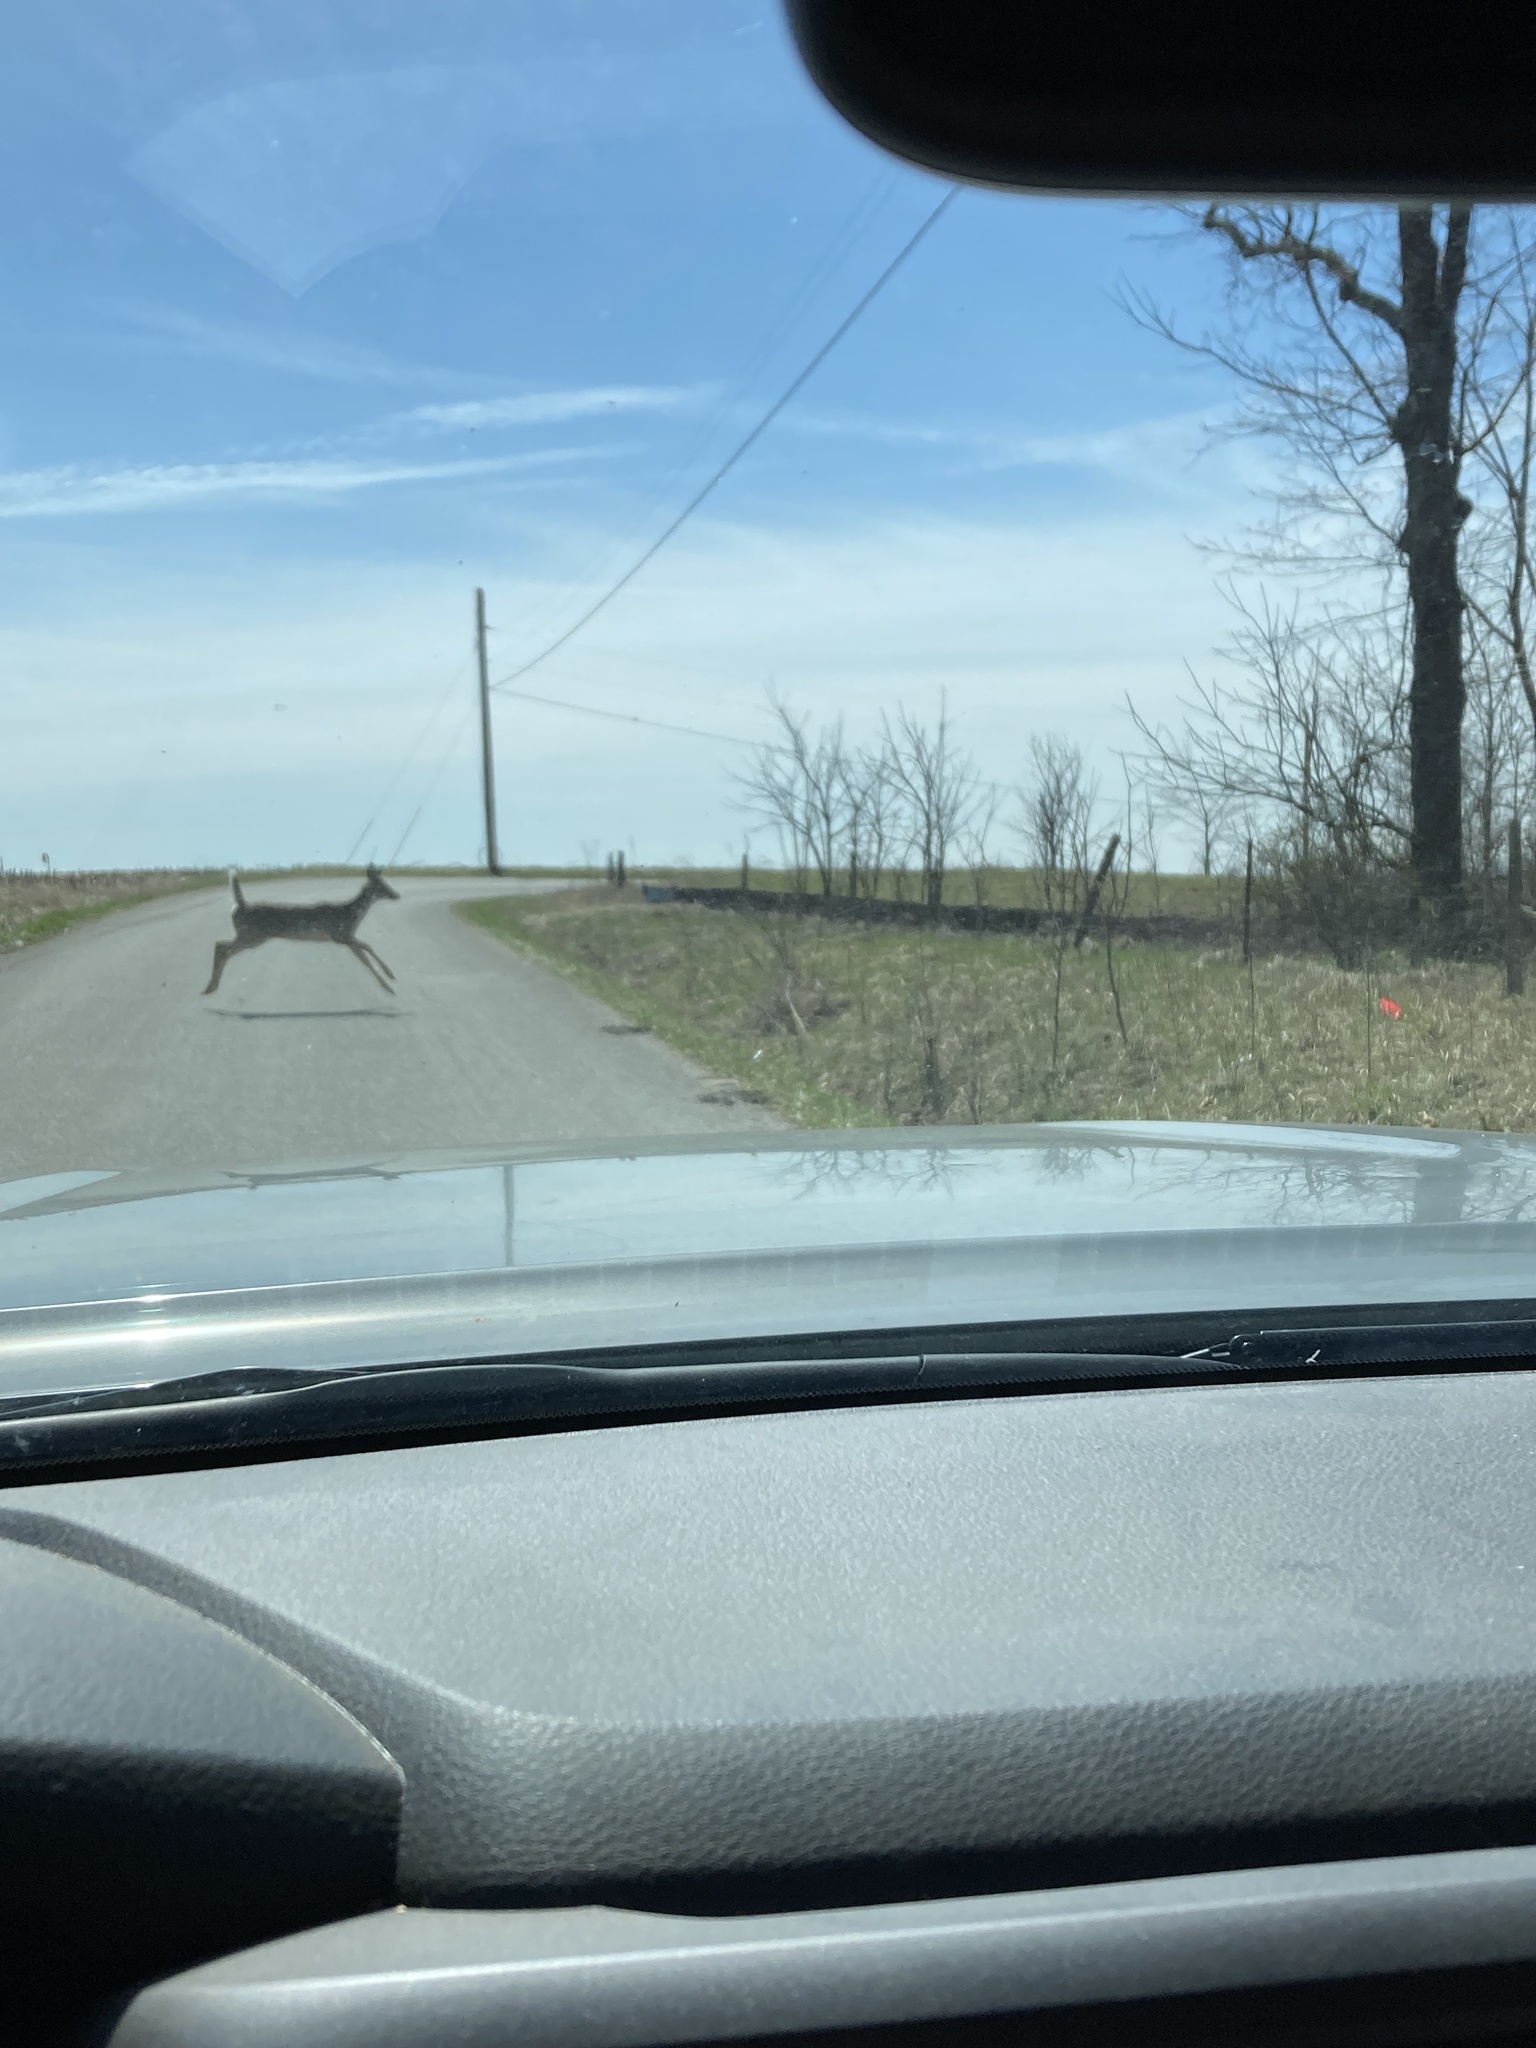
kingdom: Animalia
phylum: Chordata
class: Mammalia
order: Artiodactyla
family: Cervidae
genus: Odocoileus
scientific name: Odocoileus virginianus
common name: White-tailed deer
